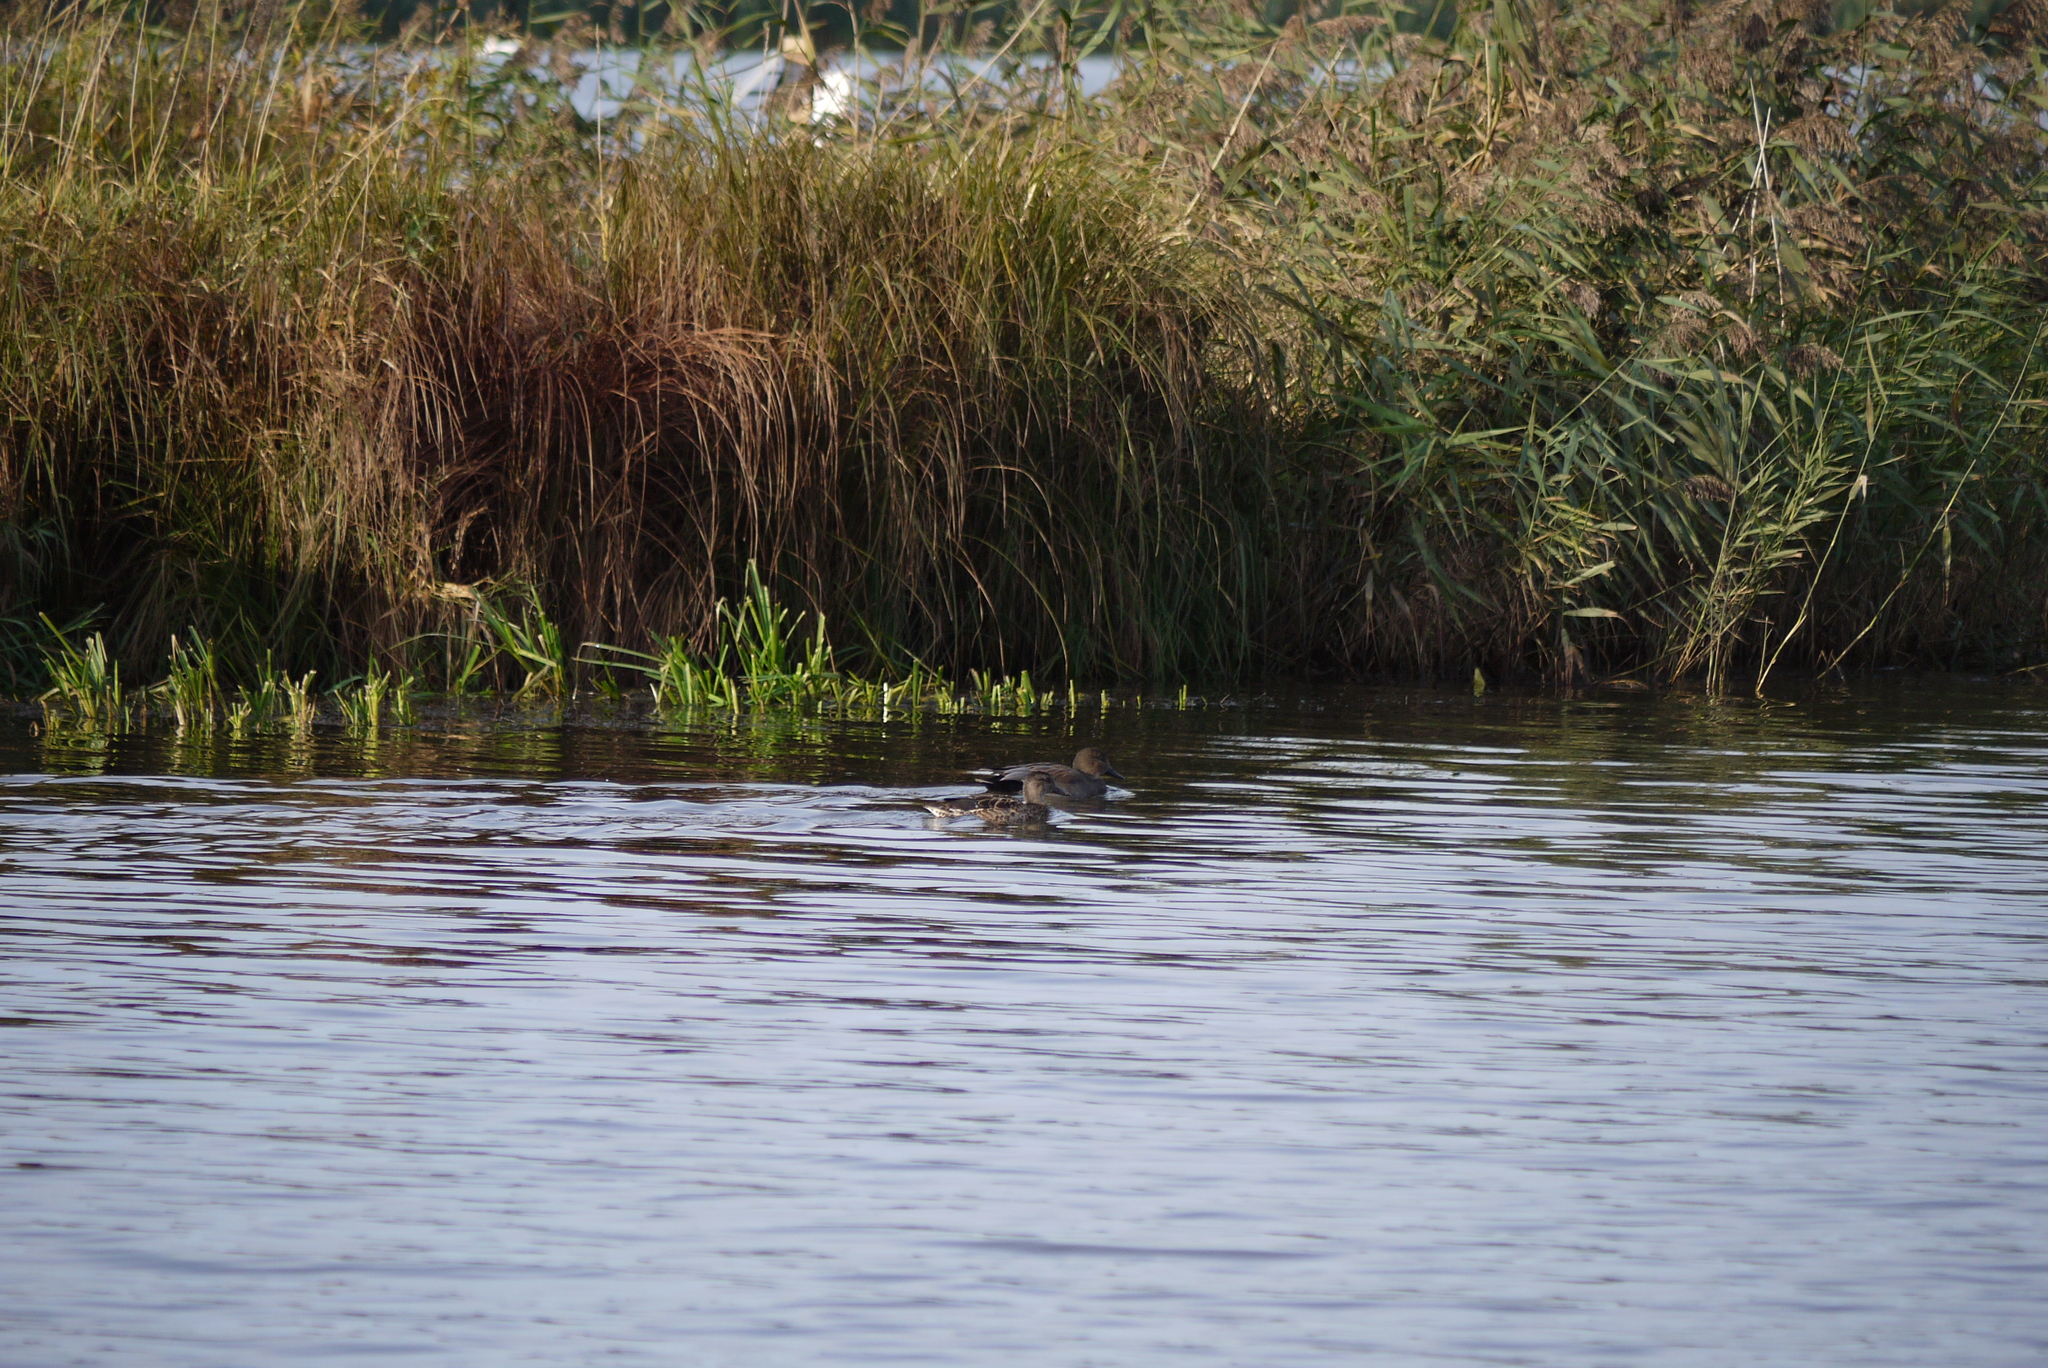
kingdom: Animalia
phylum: Chordata
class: Aves
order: Anseriformes
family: Anatidae
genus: Mareca
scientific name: Mareca strepera
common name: Gadwall
